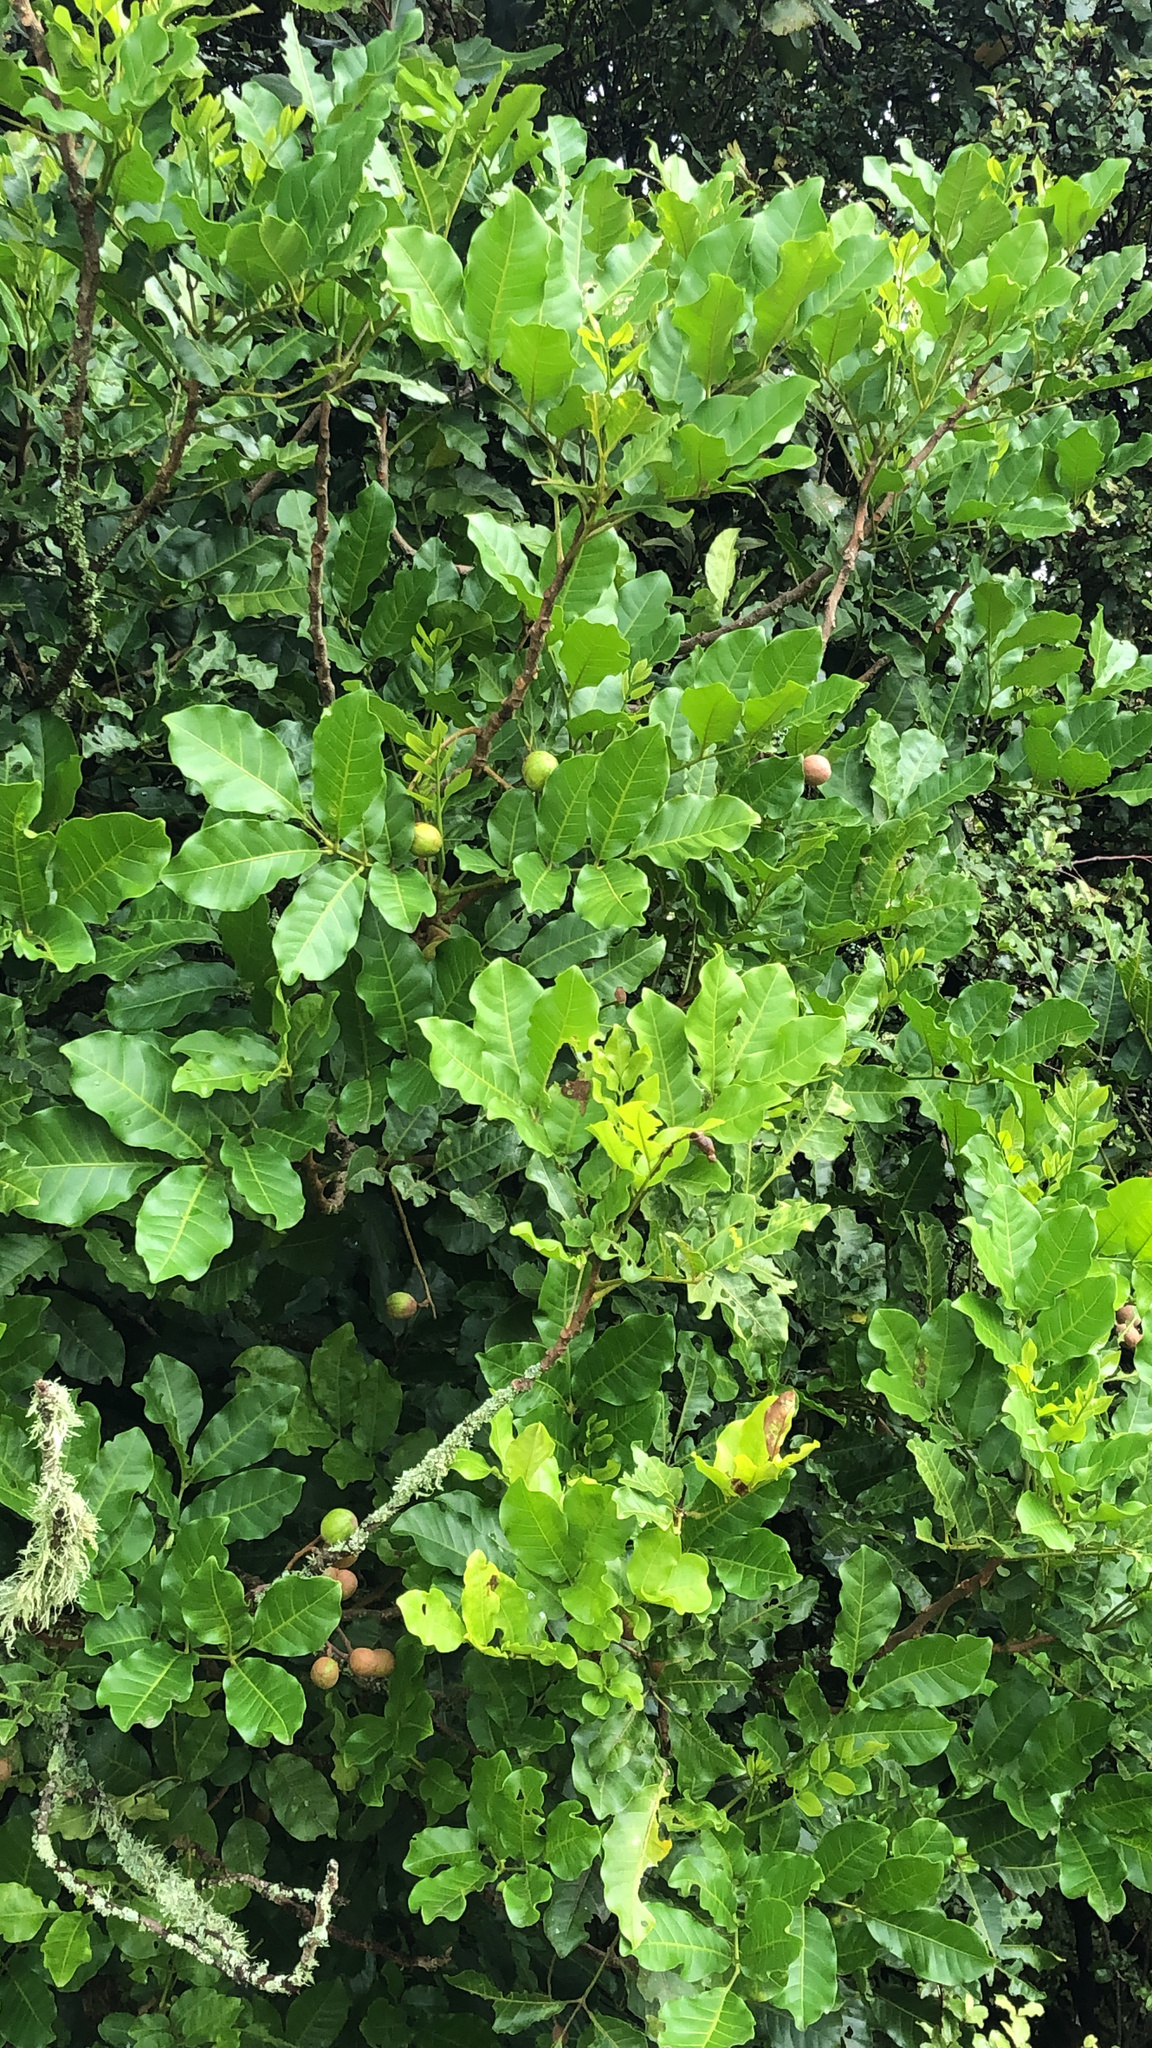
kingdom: Plantae
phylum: Tracheophyta
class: Magnoliopsida
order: Sapindales
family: Meliaceae
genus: Didymocheton
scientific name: Didymocheton spectabilis
